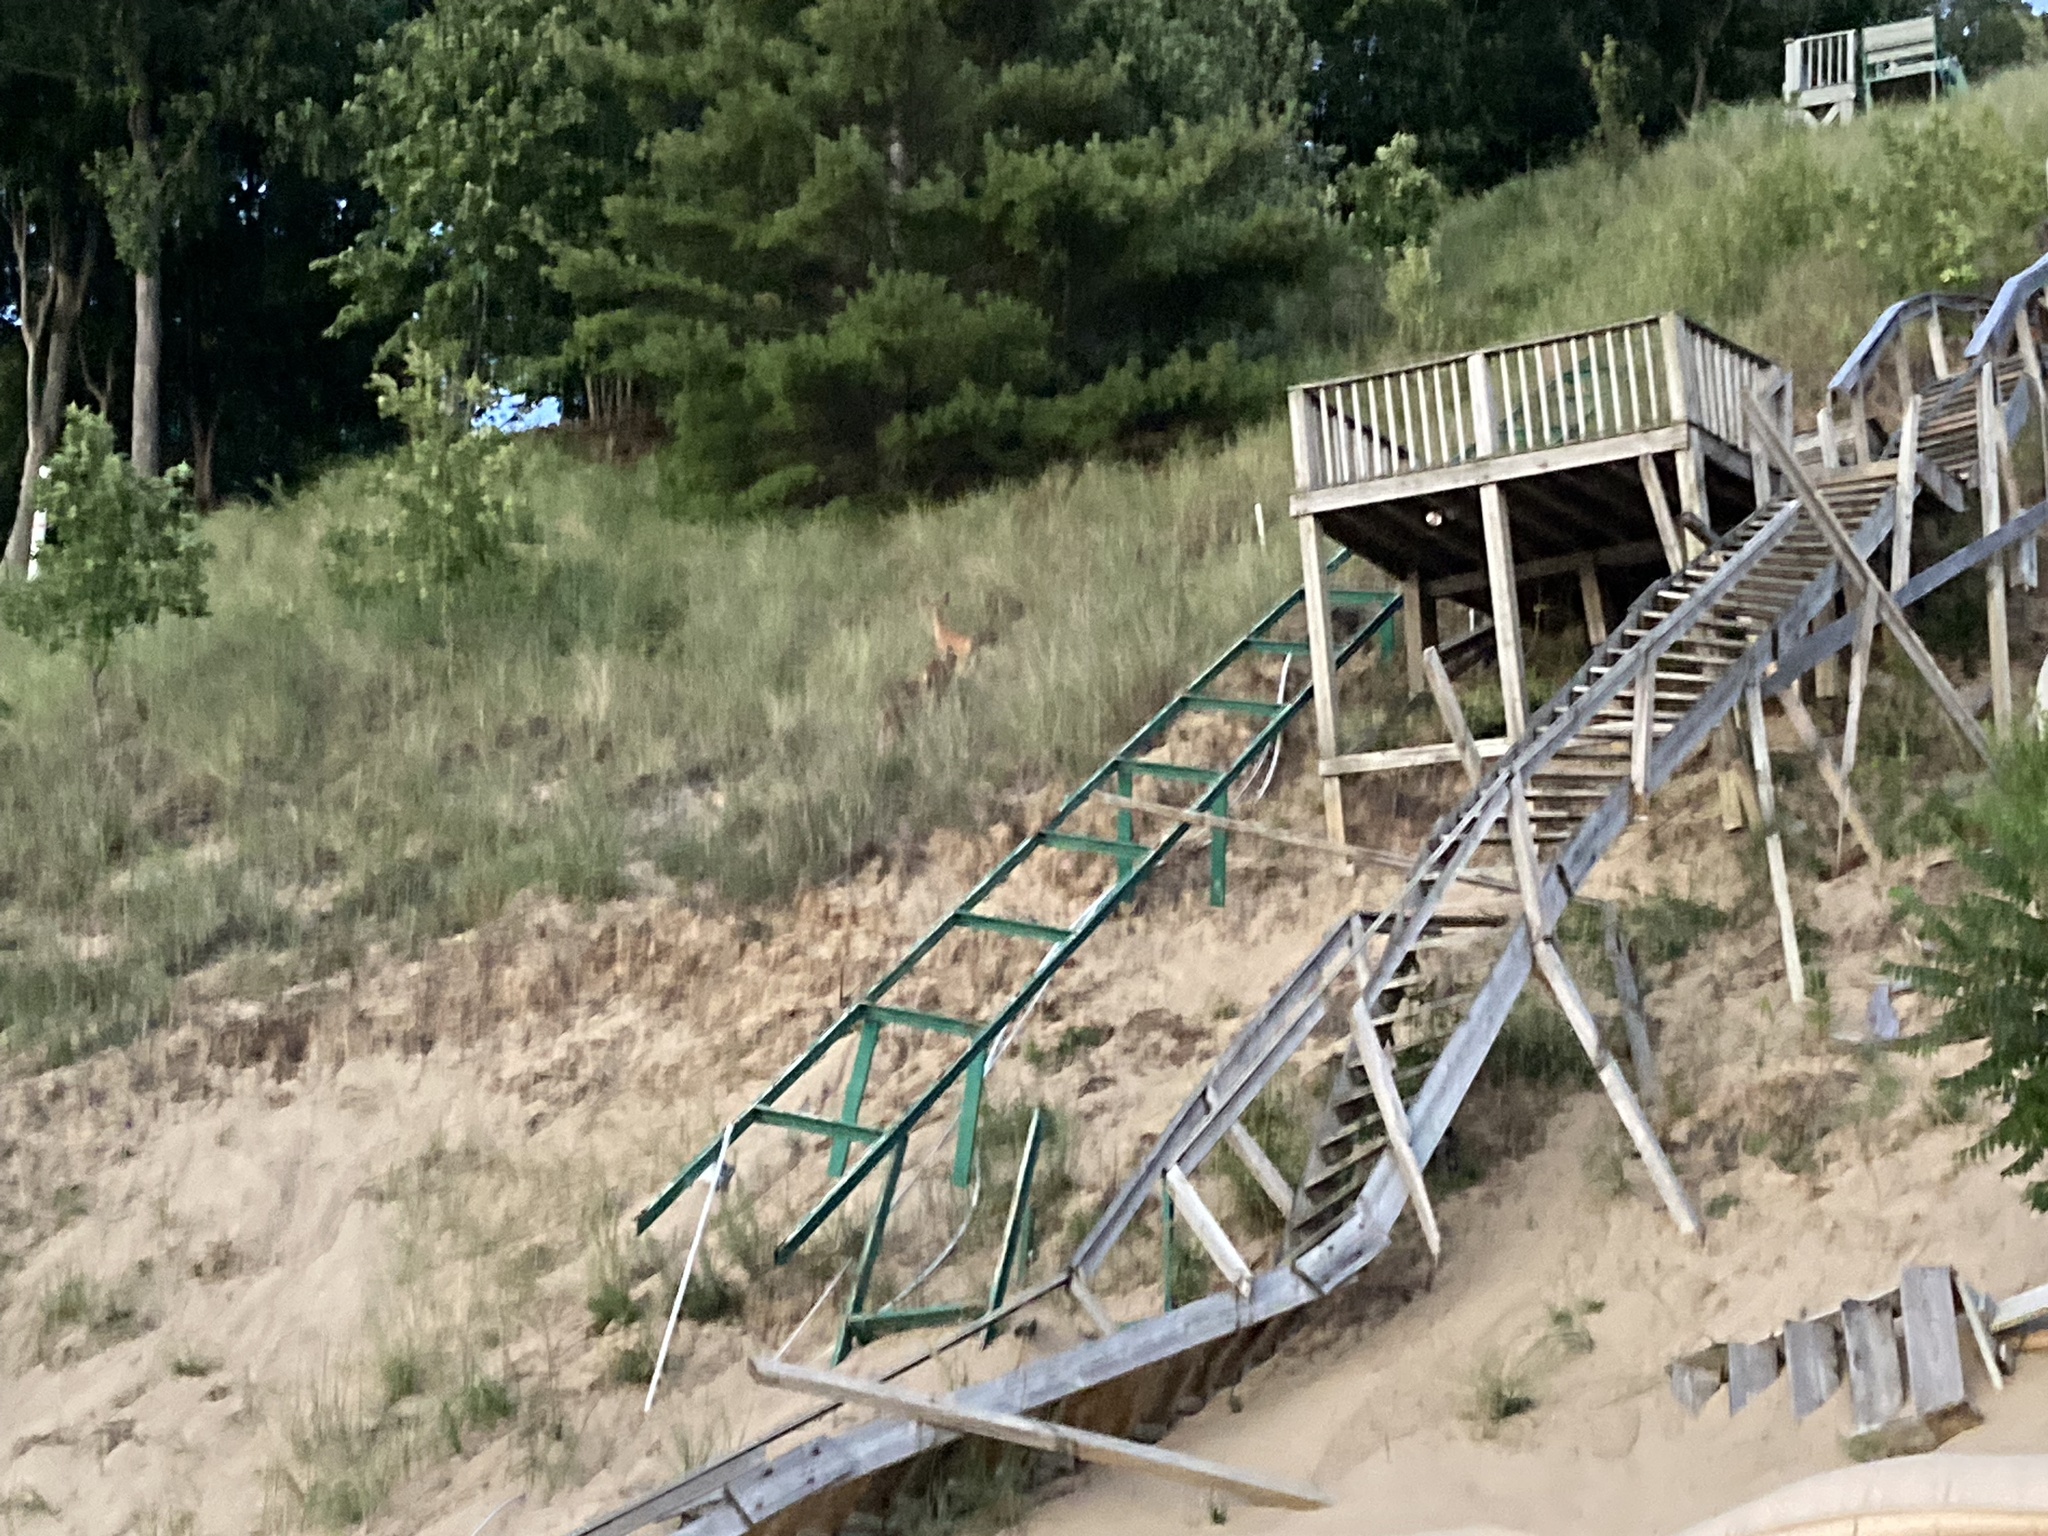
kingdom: Animalia
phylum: Chordata
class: Mammalia
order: Artiodactyla
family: Cervidae
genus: Odocoileus
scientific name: Odocoileus virginianus
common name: White-tailed deer
